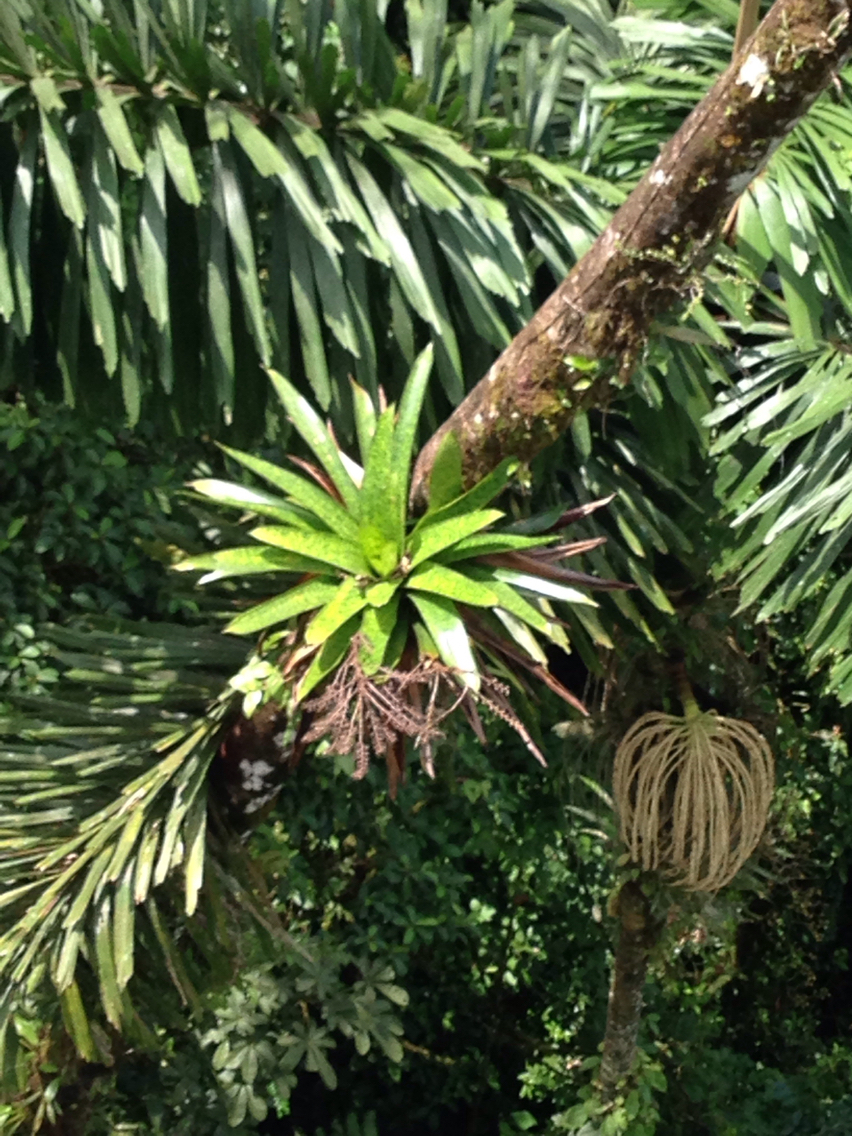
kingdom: Plantae
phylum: Tracheophyta
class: Liliopsida
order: Poales
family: Bromeliaceae
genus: Werauhia
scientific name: Werauhia kupperiana
